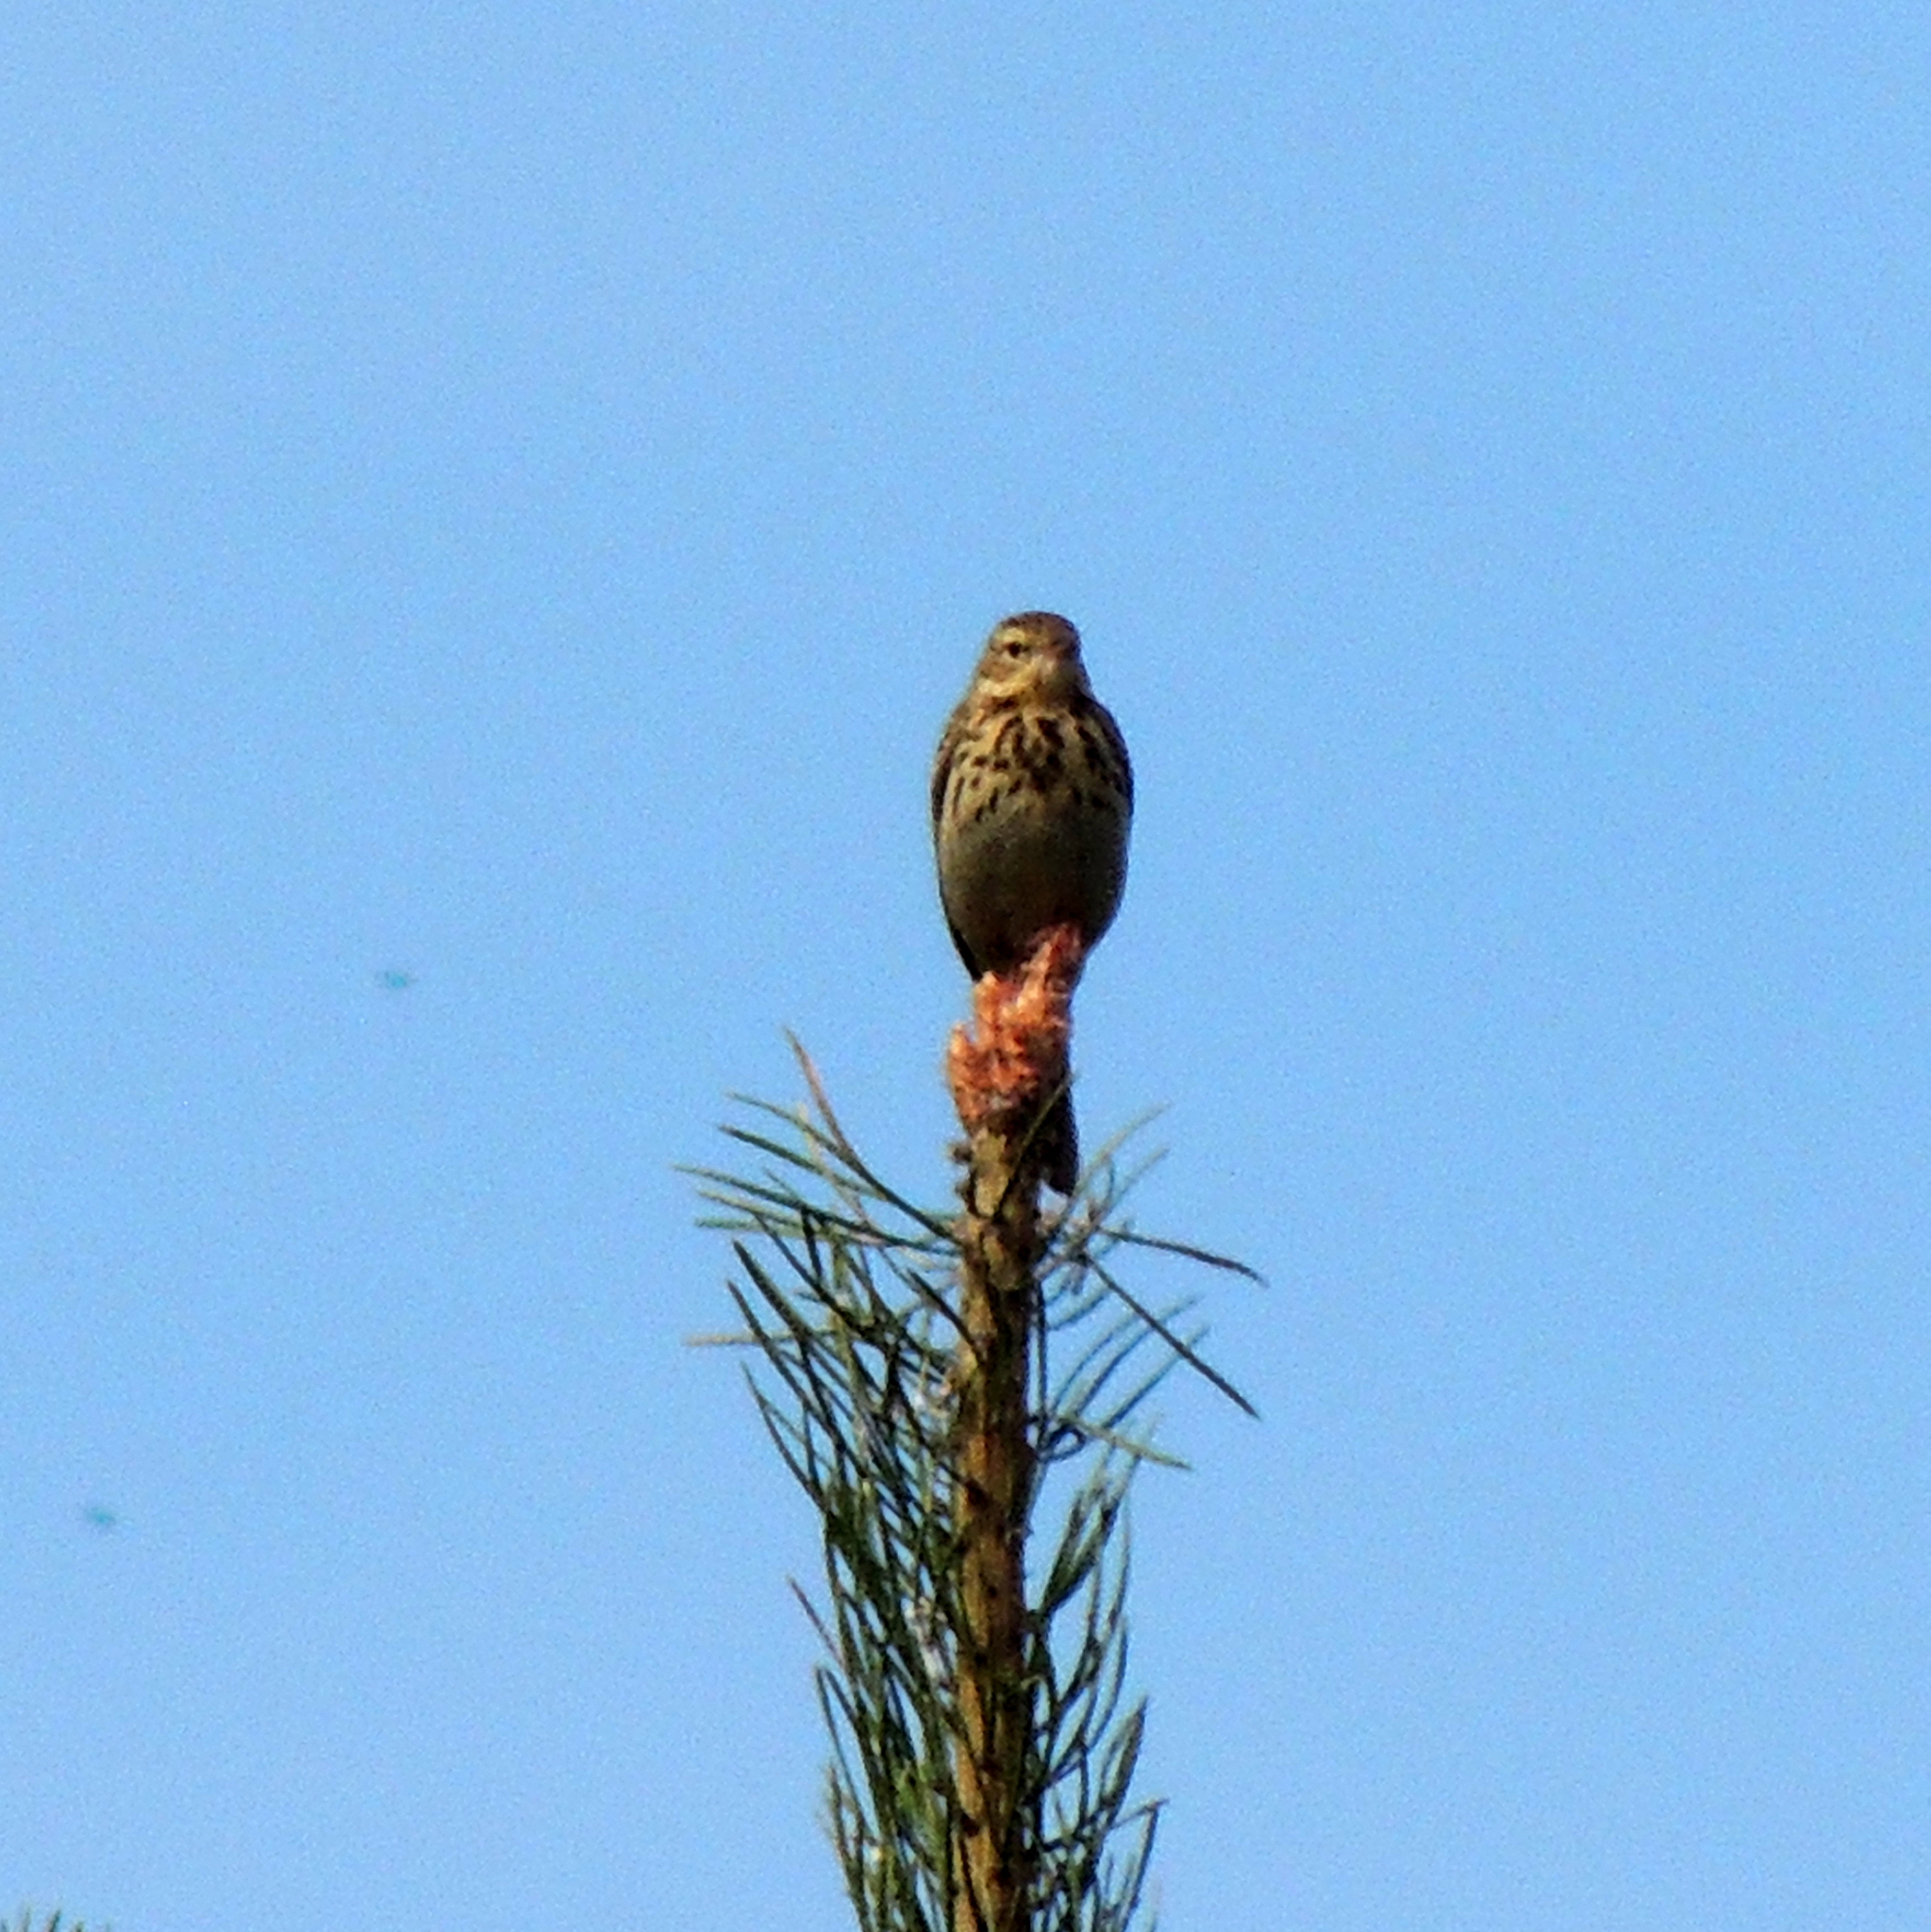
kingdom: Animalia
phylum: Chordata
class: Aves
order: Passeriformes
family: Motacillidae
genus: Anthus
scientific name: Anthus trivialis
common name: Tree pipit
